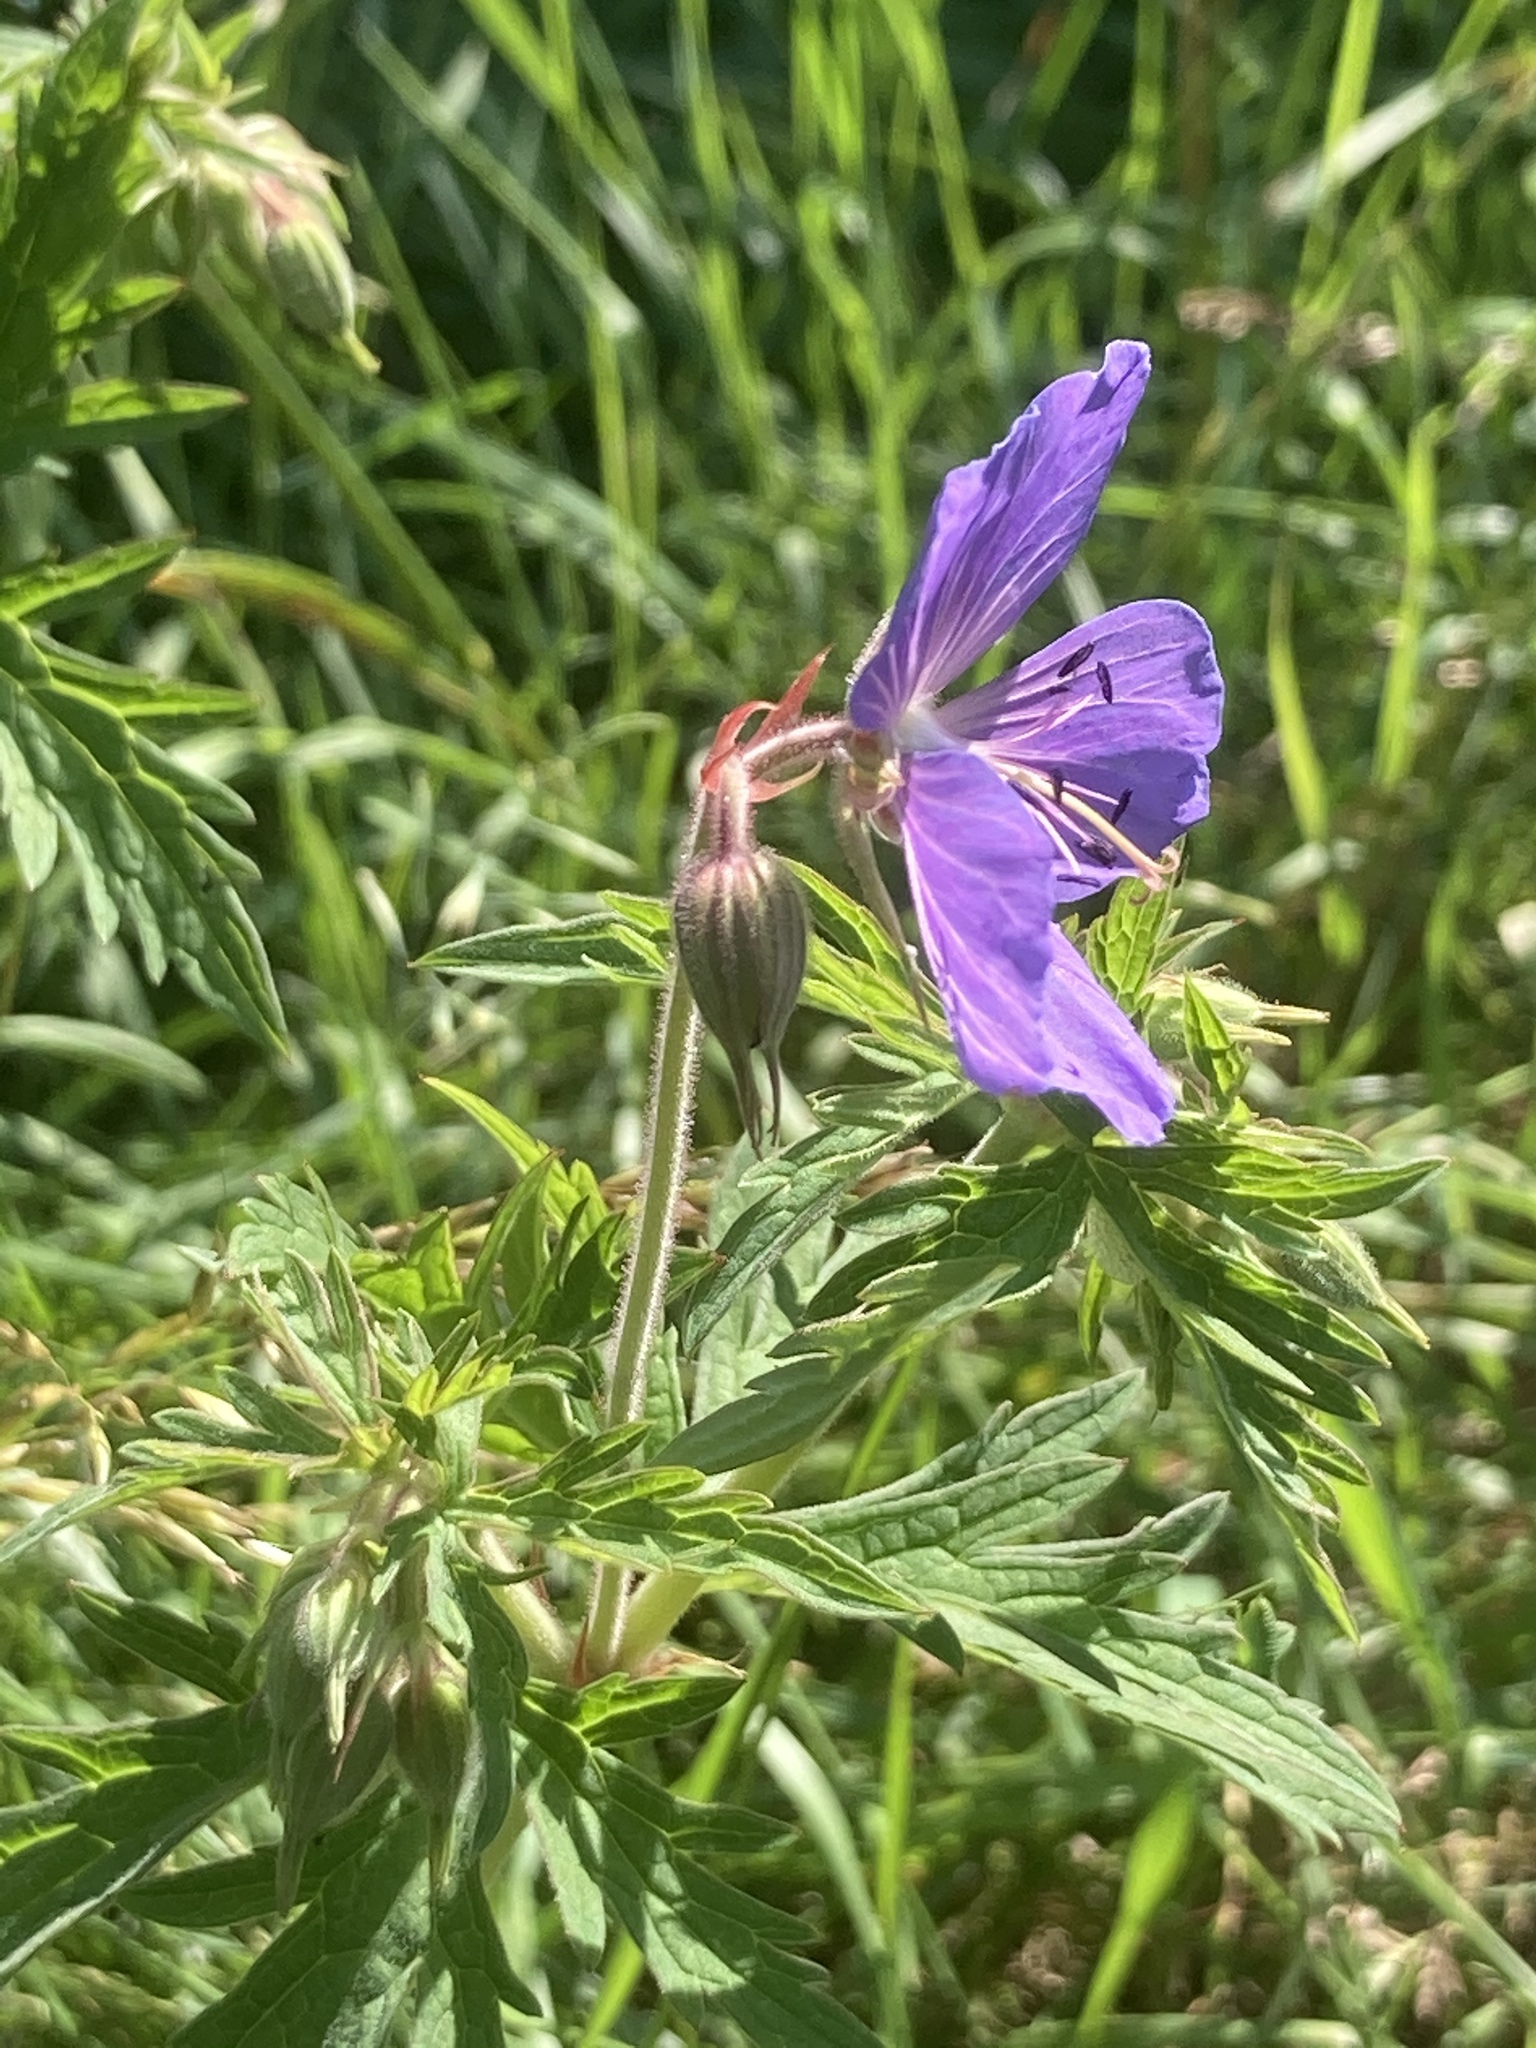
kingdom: Plantae
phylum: Tracheophyta
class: Magnoliopsida
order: Geraniales
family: Geraniaceae
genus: Geranium
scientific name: Geranium pratense
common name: Meadow crane's-bill
